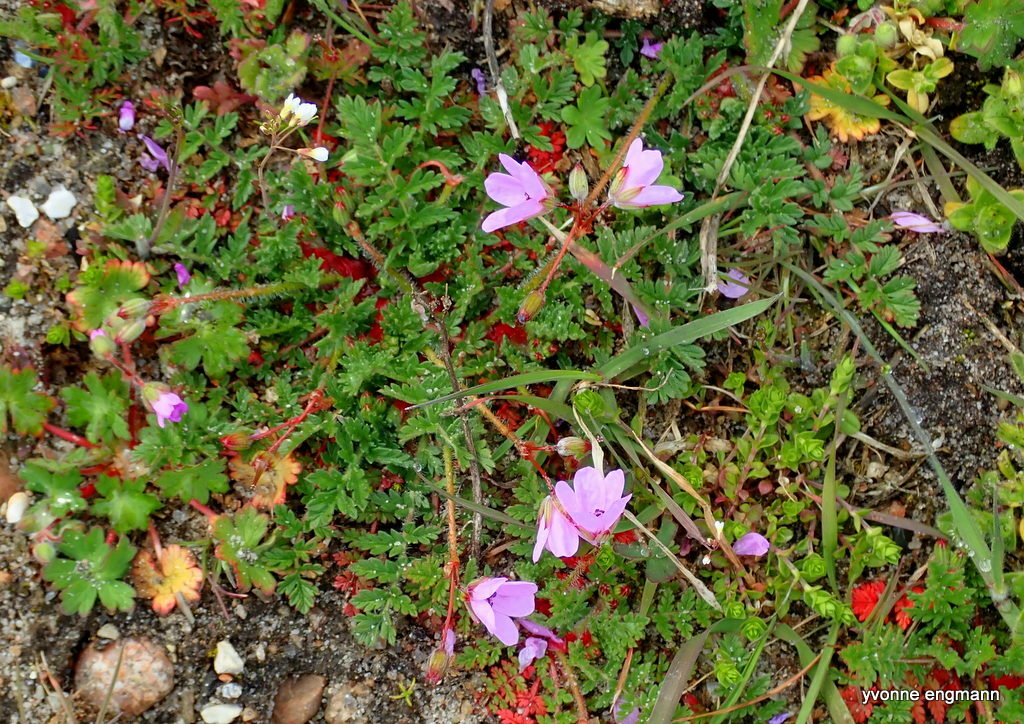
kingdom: Plantae
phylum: Tracheophyta
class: Magnoliopsida
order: Geraniales
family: Geraniaceae
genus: Erodium
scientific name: Erodium cicutarium
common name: Common stork's-bill
